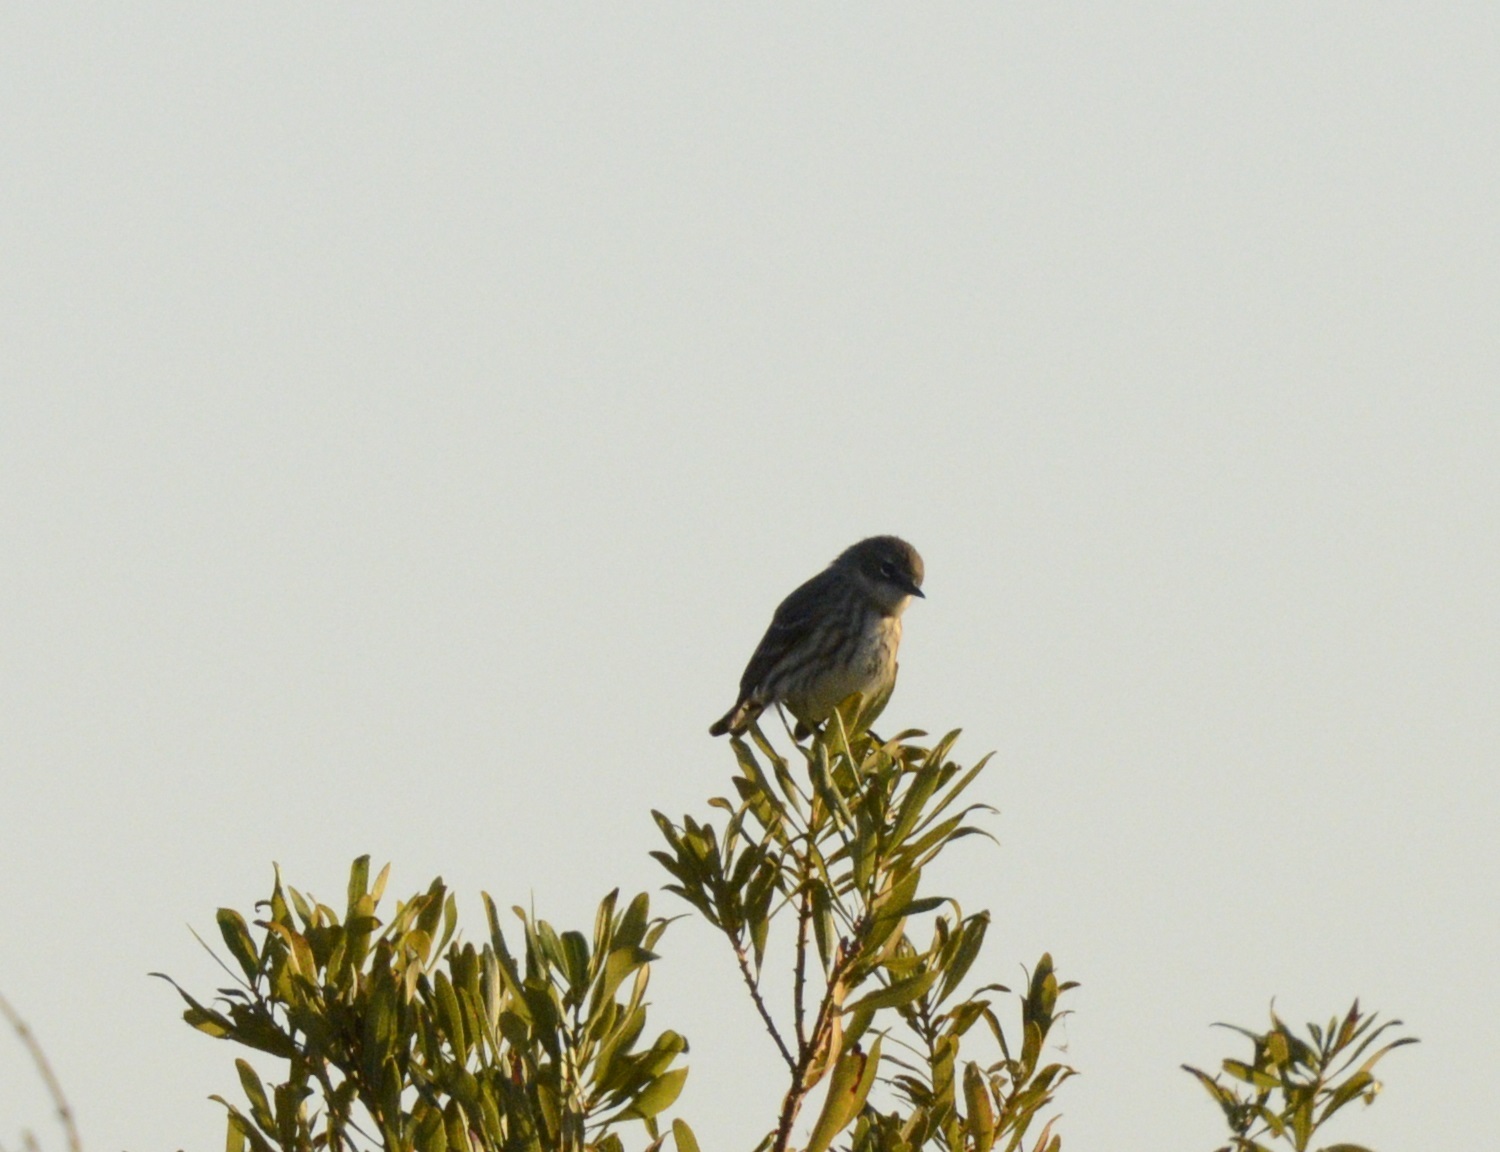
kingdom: Animalia
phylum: Chordata
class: Aves
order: Passeriformes
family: Parulidae
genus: Setophaga
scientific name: Setophaga coronata
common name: Myrtle warbler
